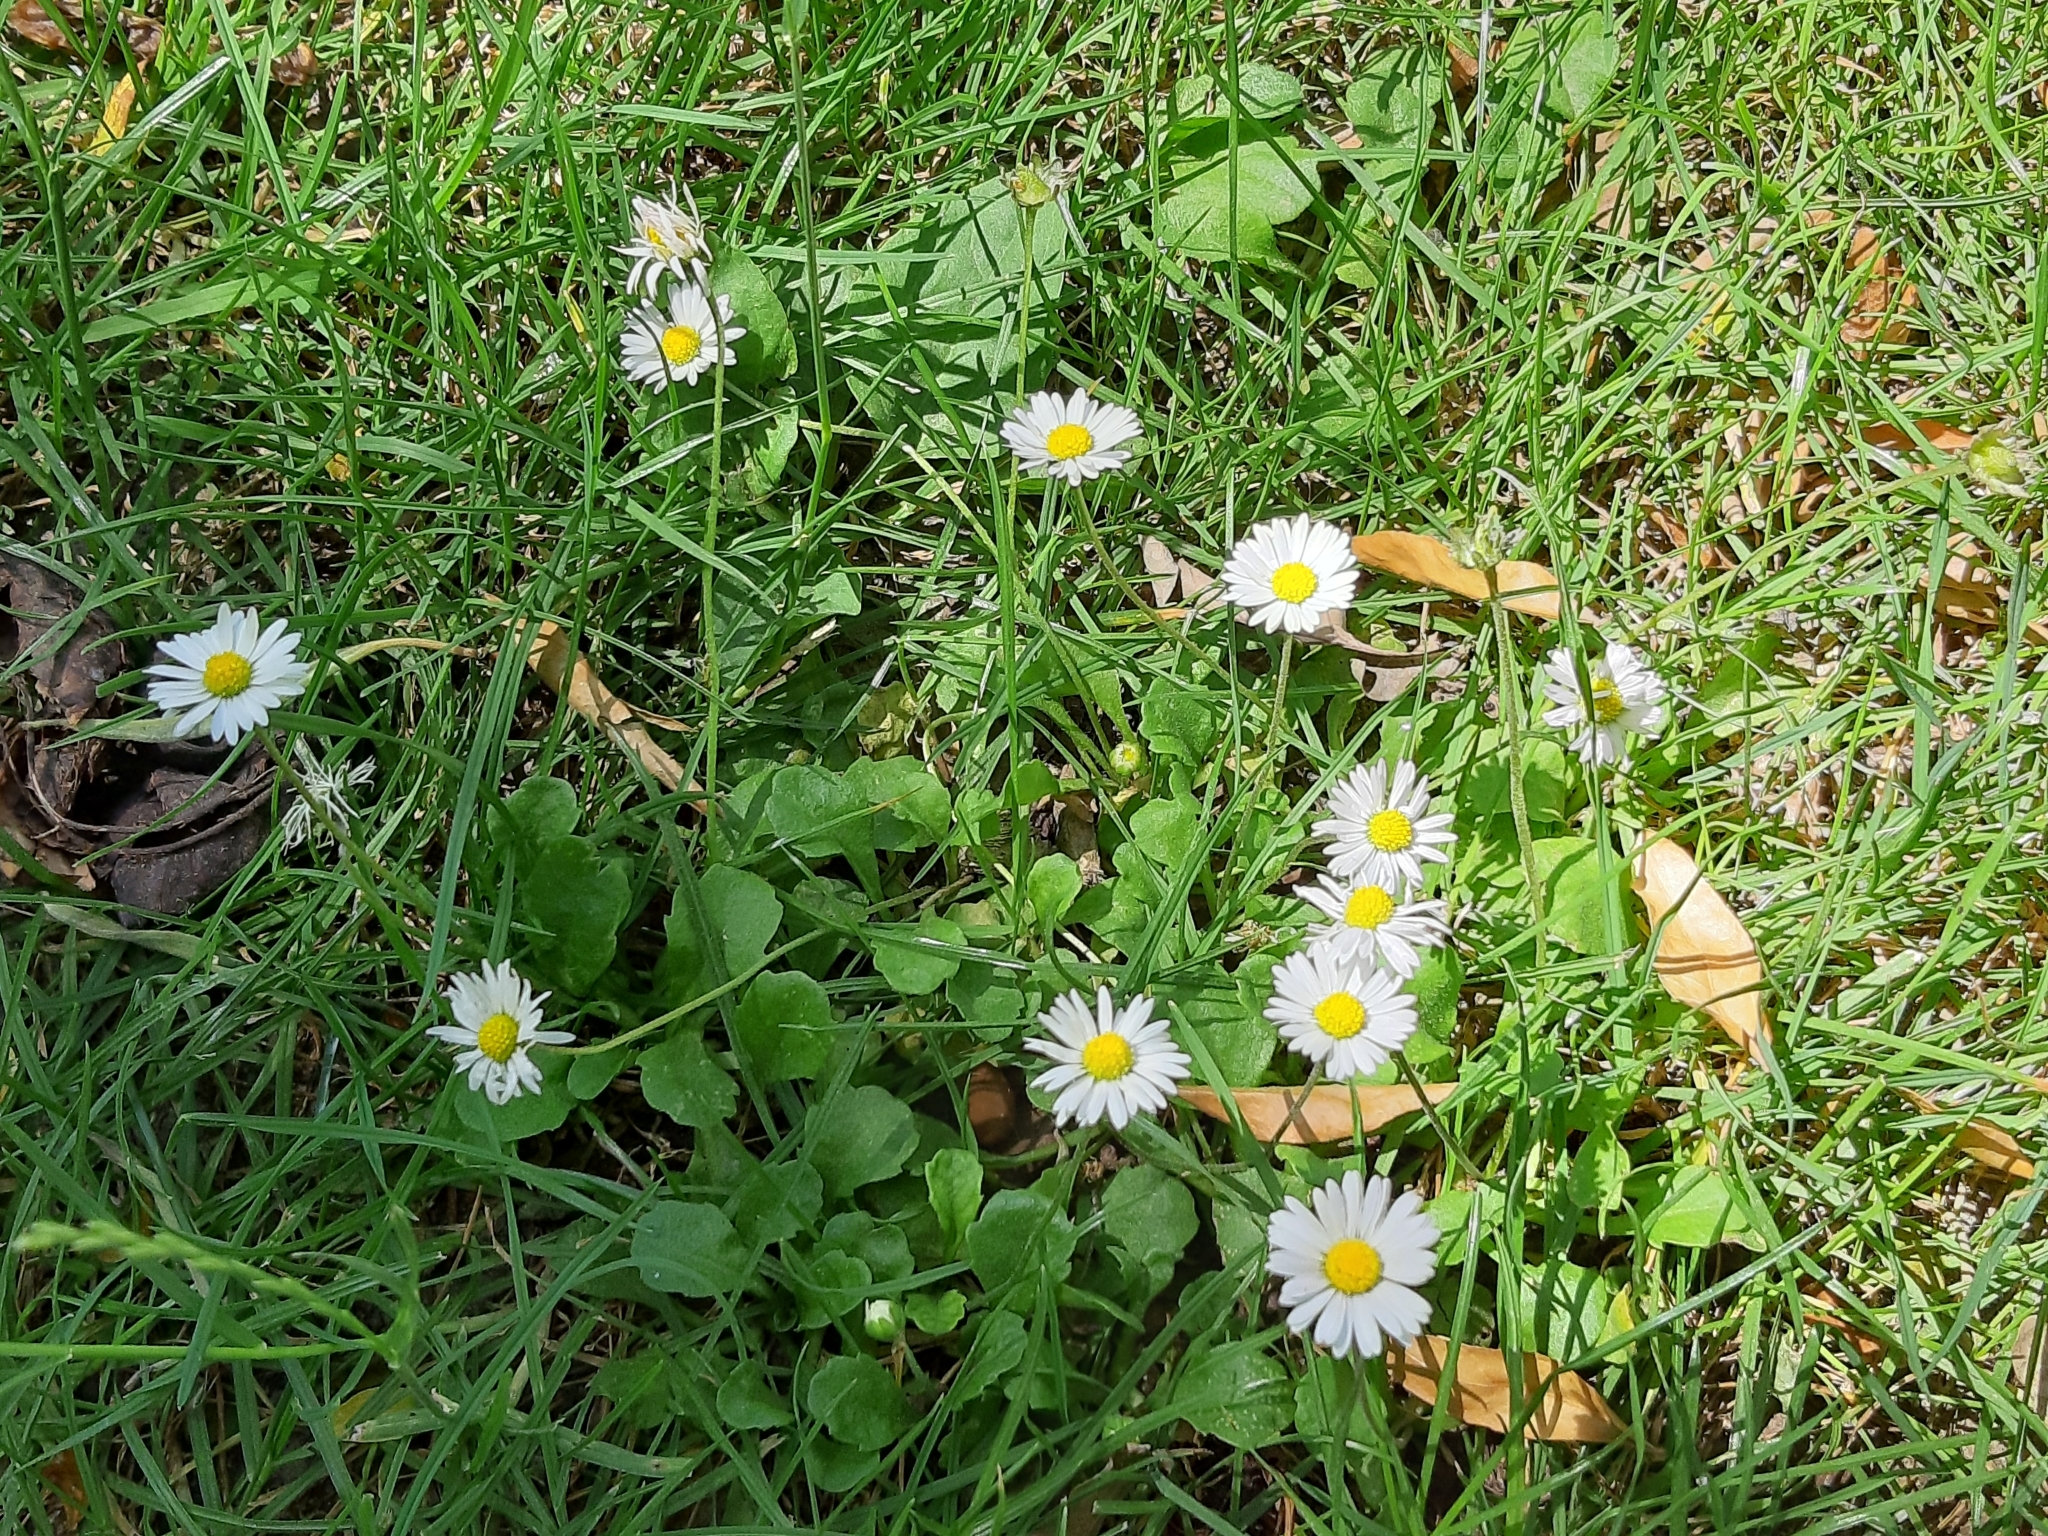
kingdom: Plantae
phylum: Tracheophyta
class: Magnoliopsida
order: Asterales
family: Asteraceae
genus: Bellis
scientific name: Bellis perennis
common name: Lawndaisy
